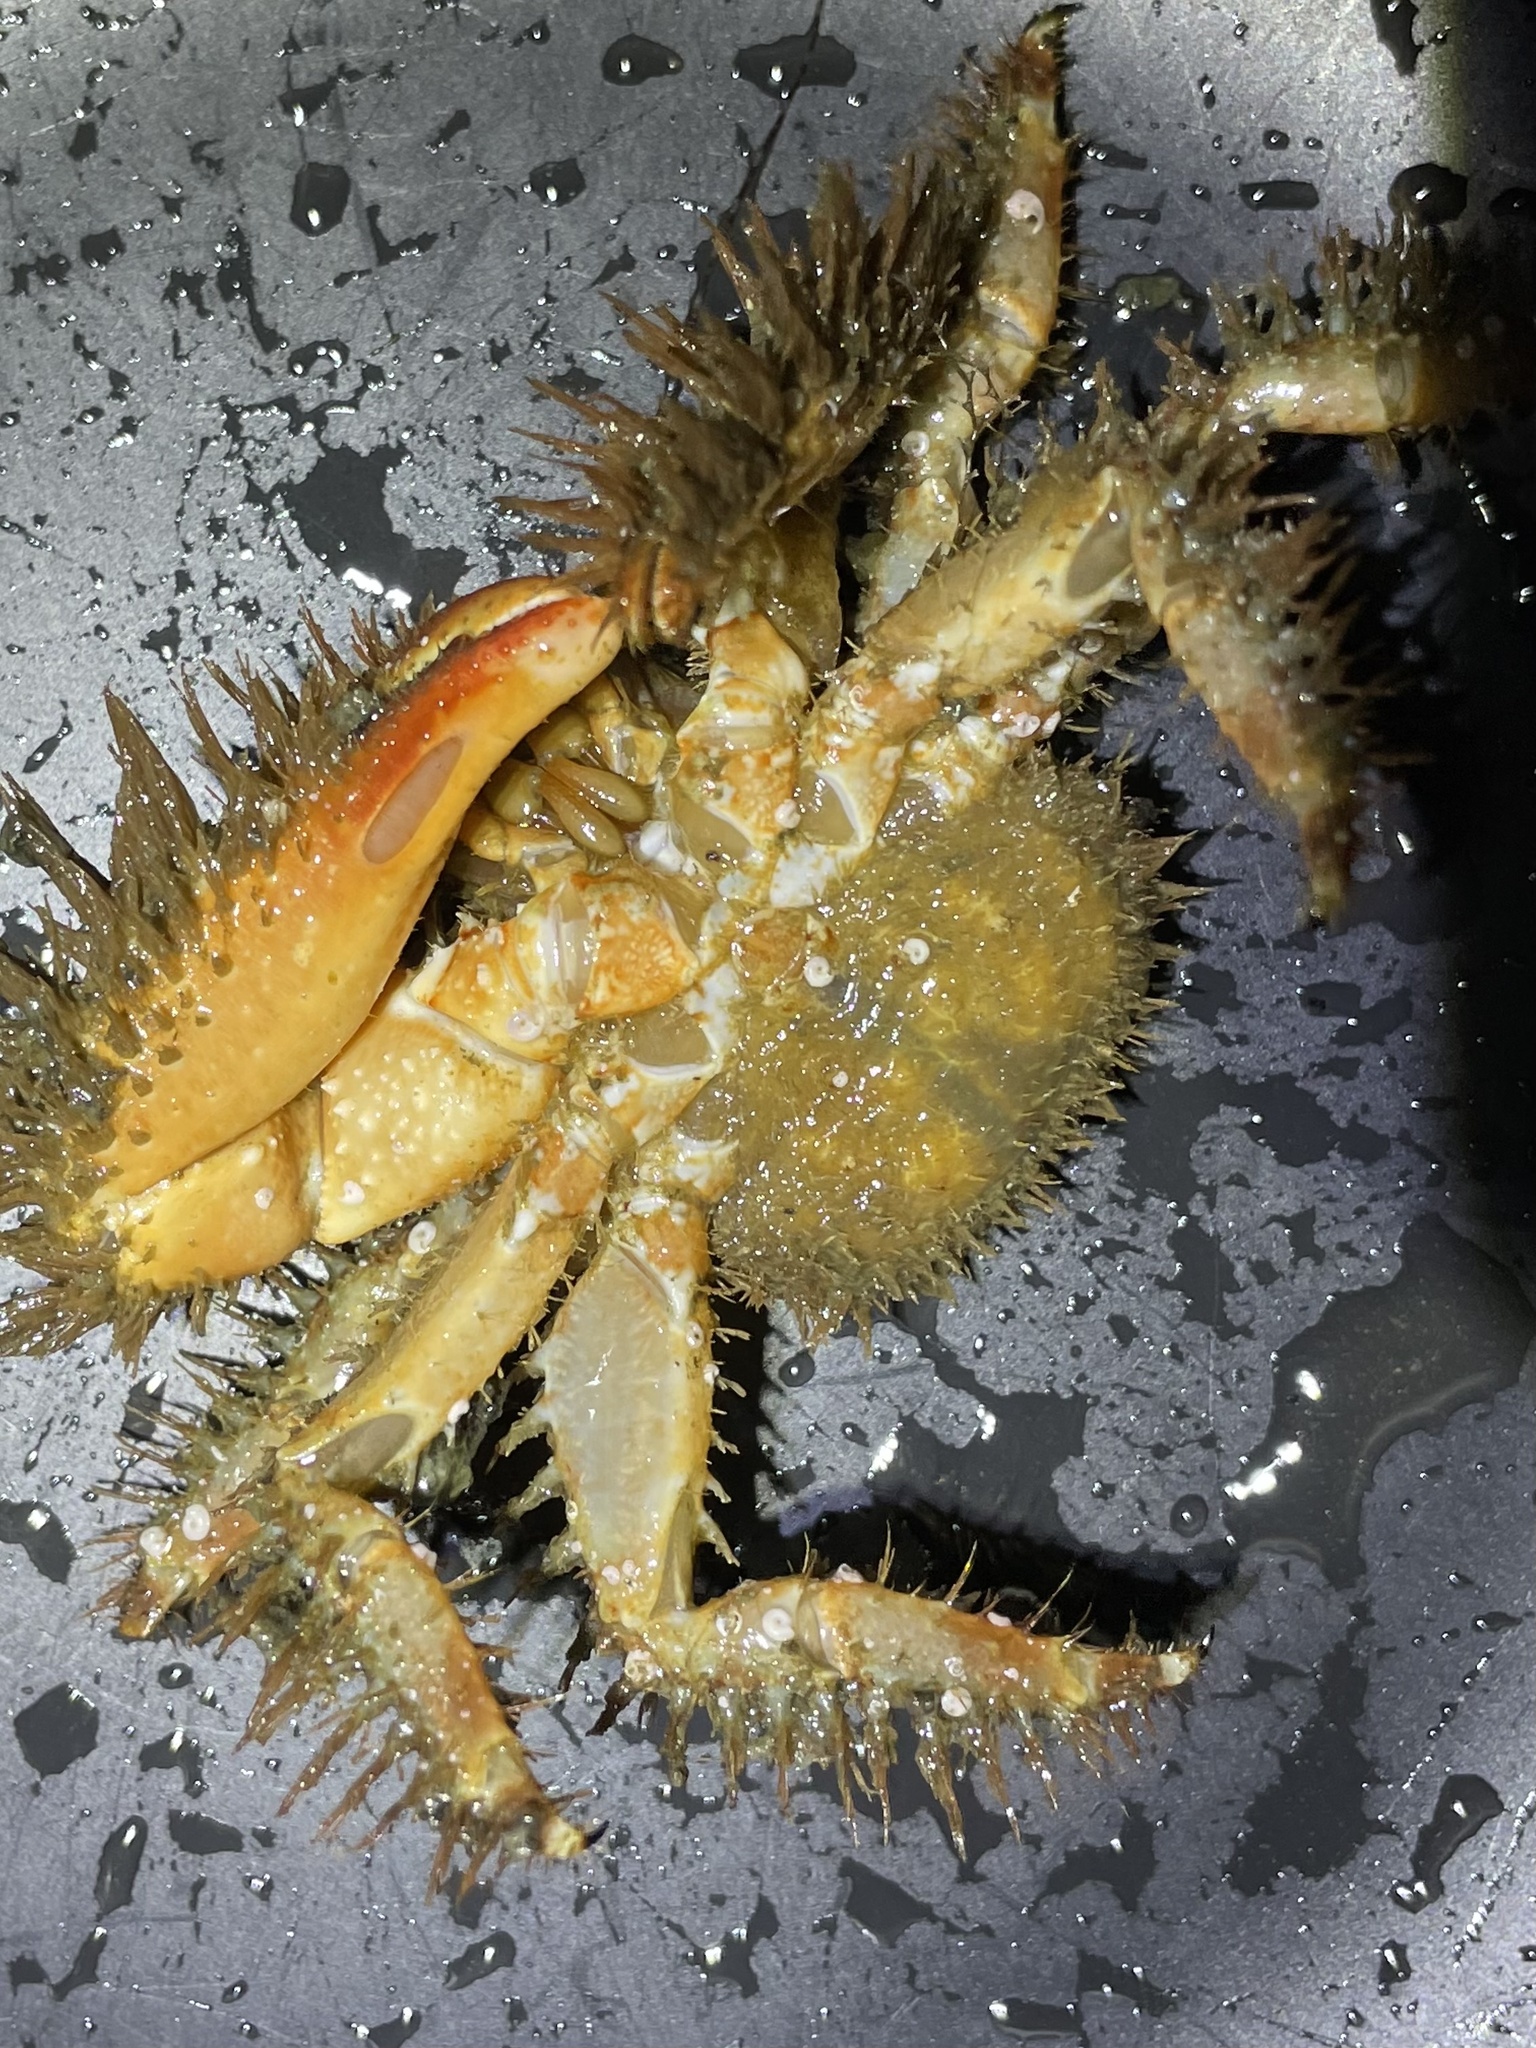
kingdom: Animalia
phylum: Arthropoda
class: Malacostraca
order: Decapoda
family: Hapalogastridae
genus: Hapalogaster
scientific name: Hapalogaster mertensii
